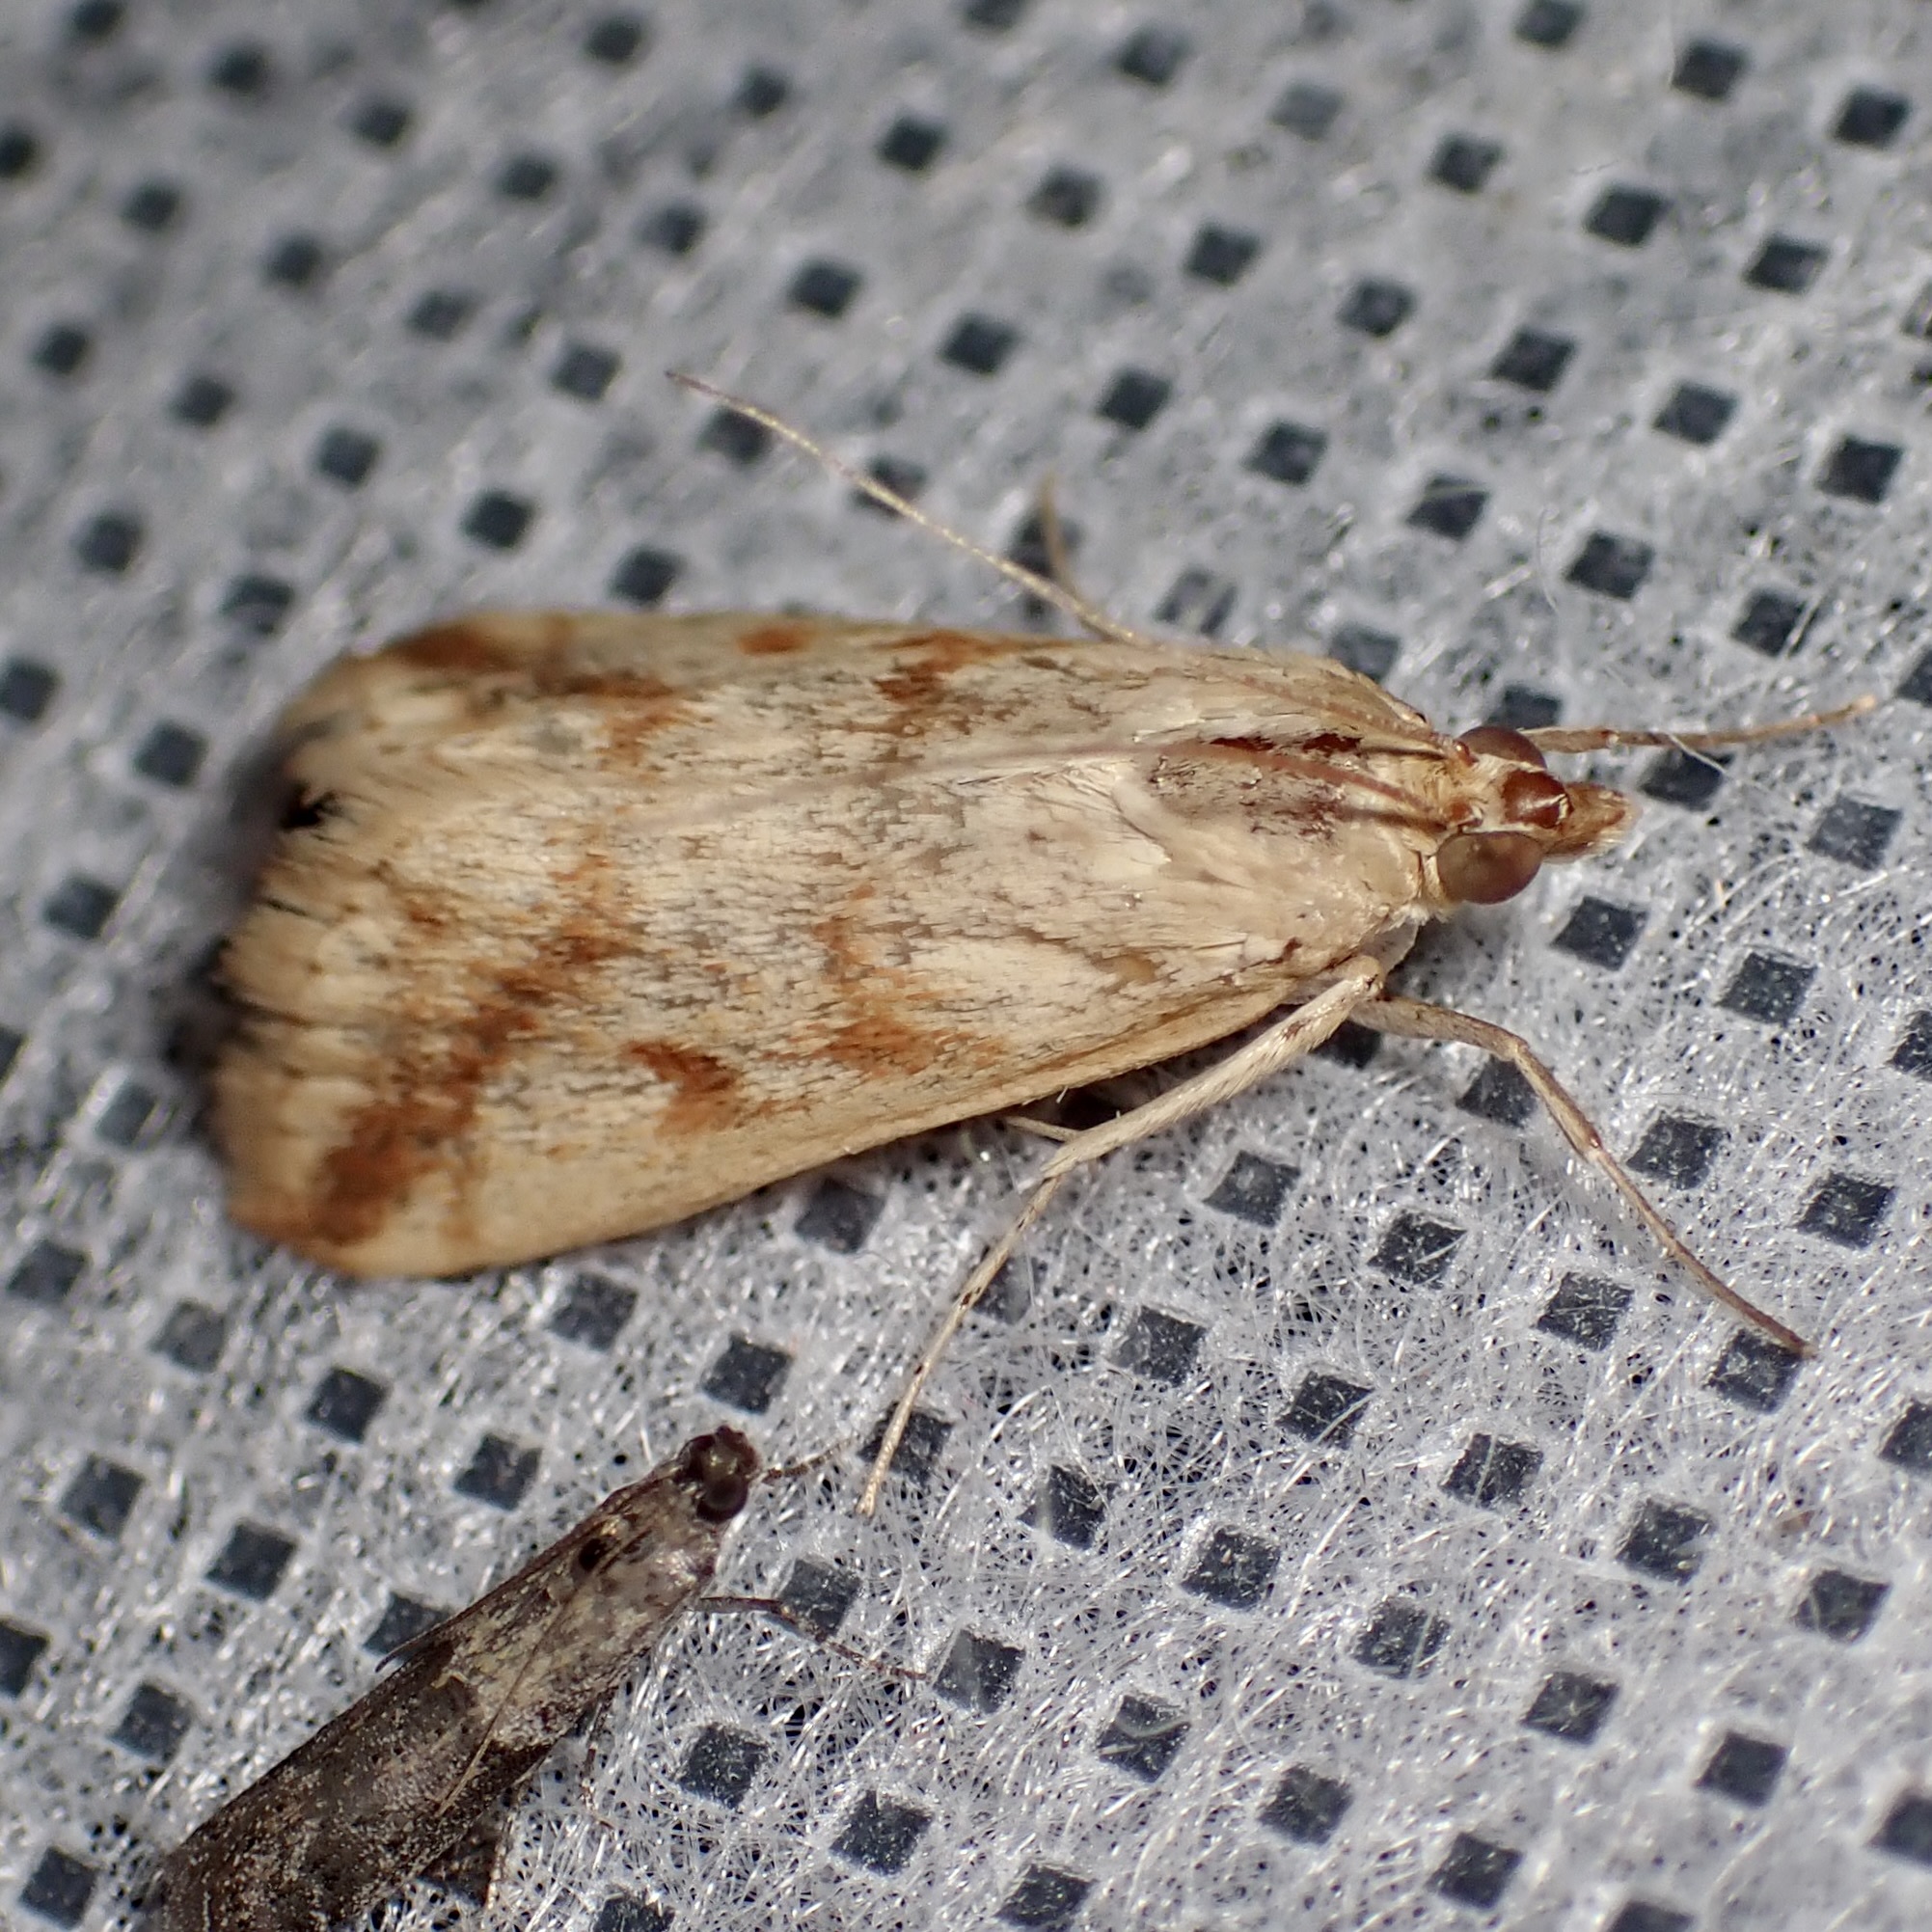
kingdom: Animalia
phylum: Arthropoda
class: Insecta
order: Lepidoptera
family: Crambidae
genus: Achyra
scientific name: Achyra bifidalis
